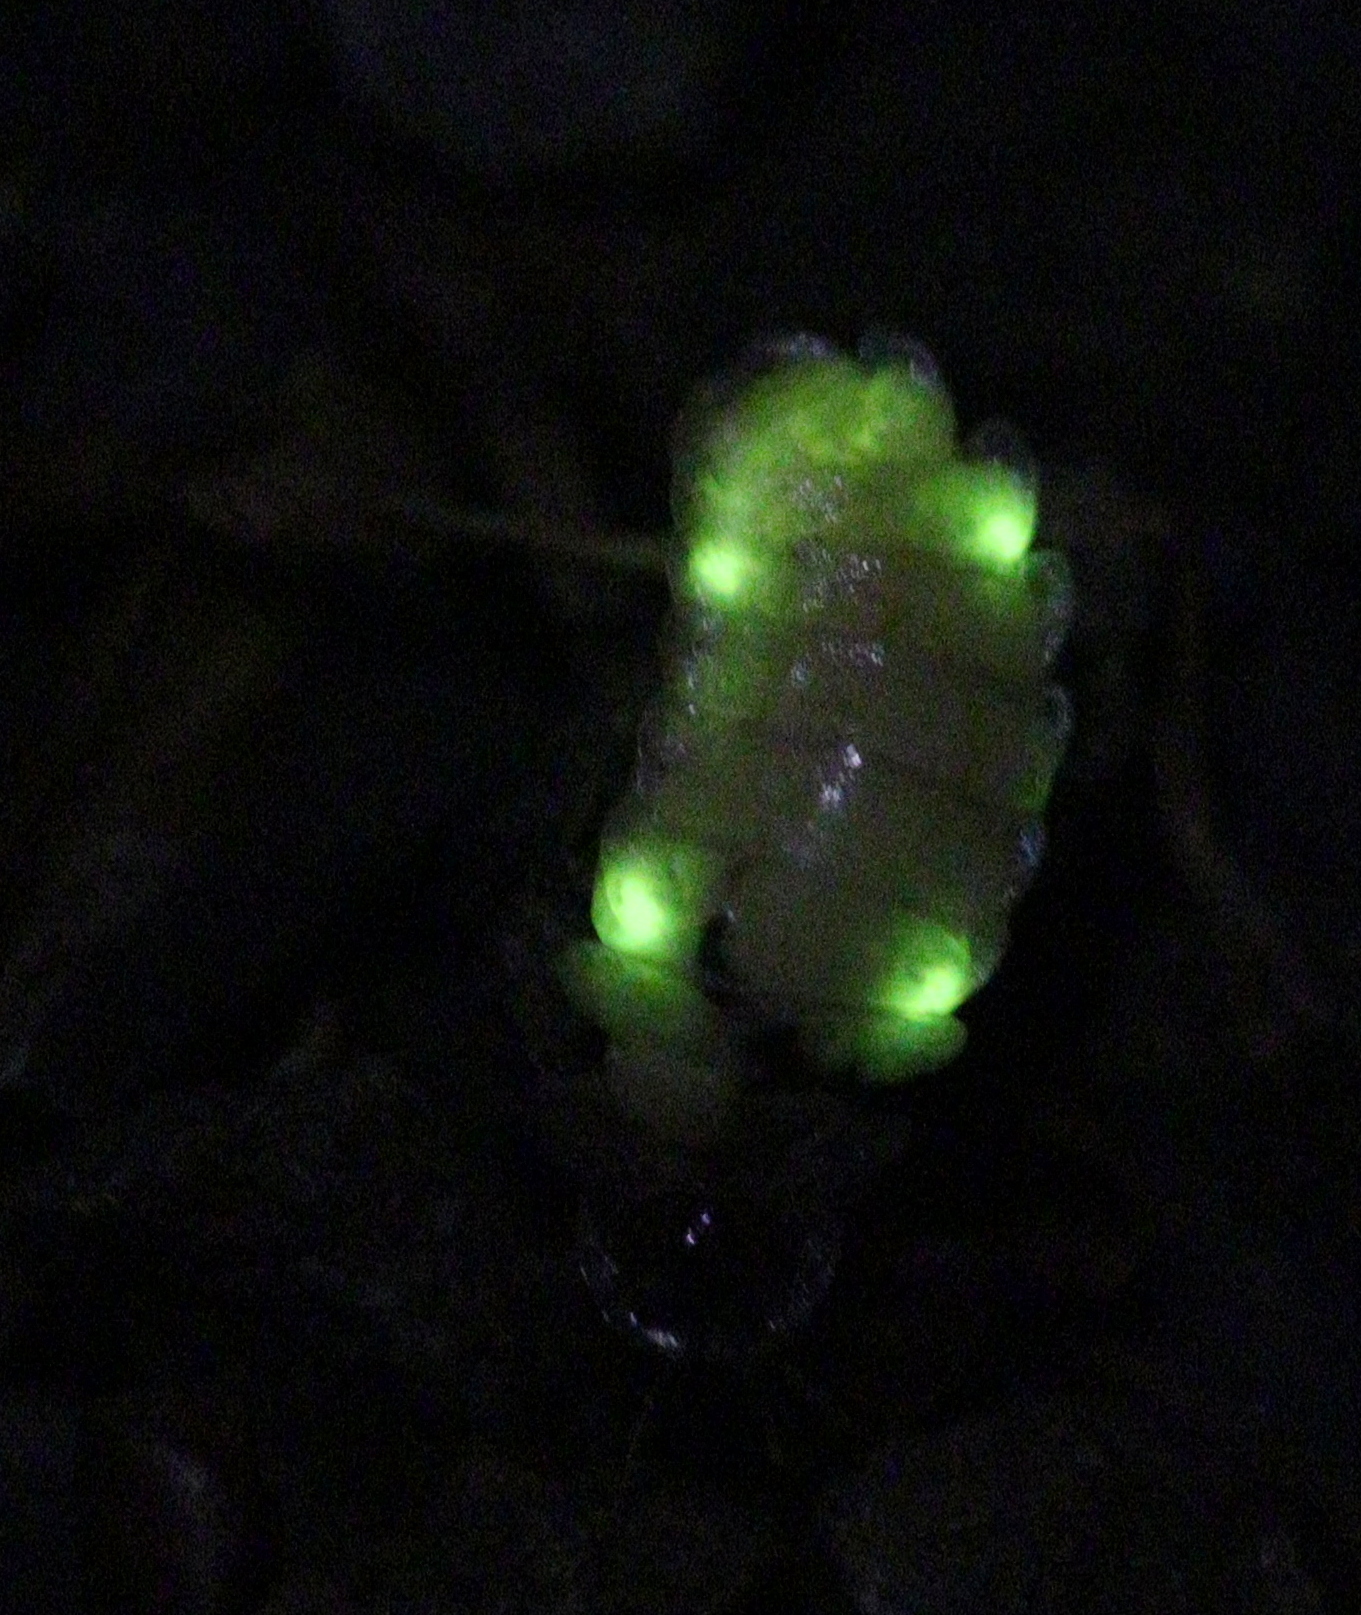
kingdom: Animalia
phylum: Arthropoda
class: Insecta
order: Coleoptera
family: Lampyridae
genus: Lamprohiza
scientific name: Lamprohiza splendidula
